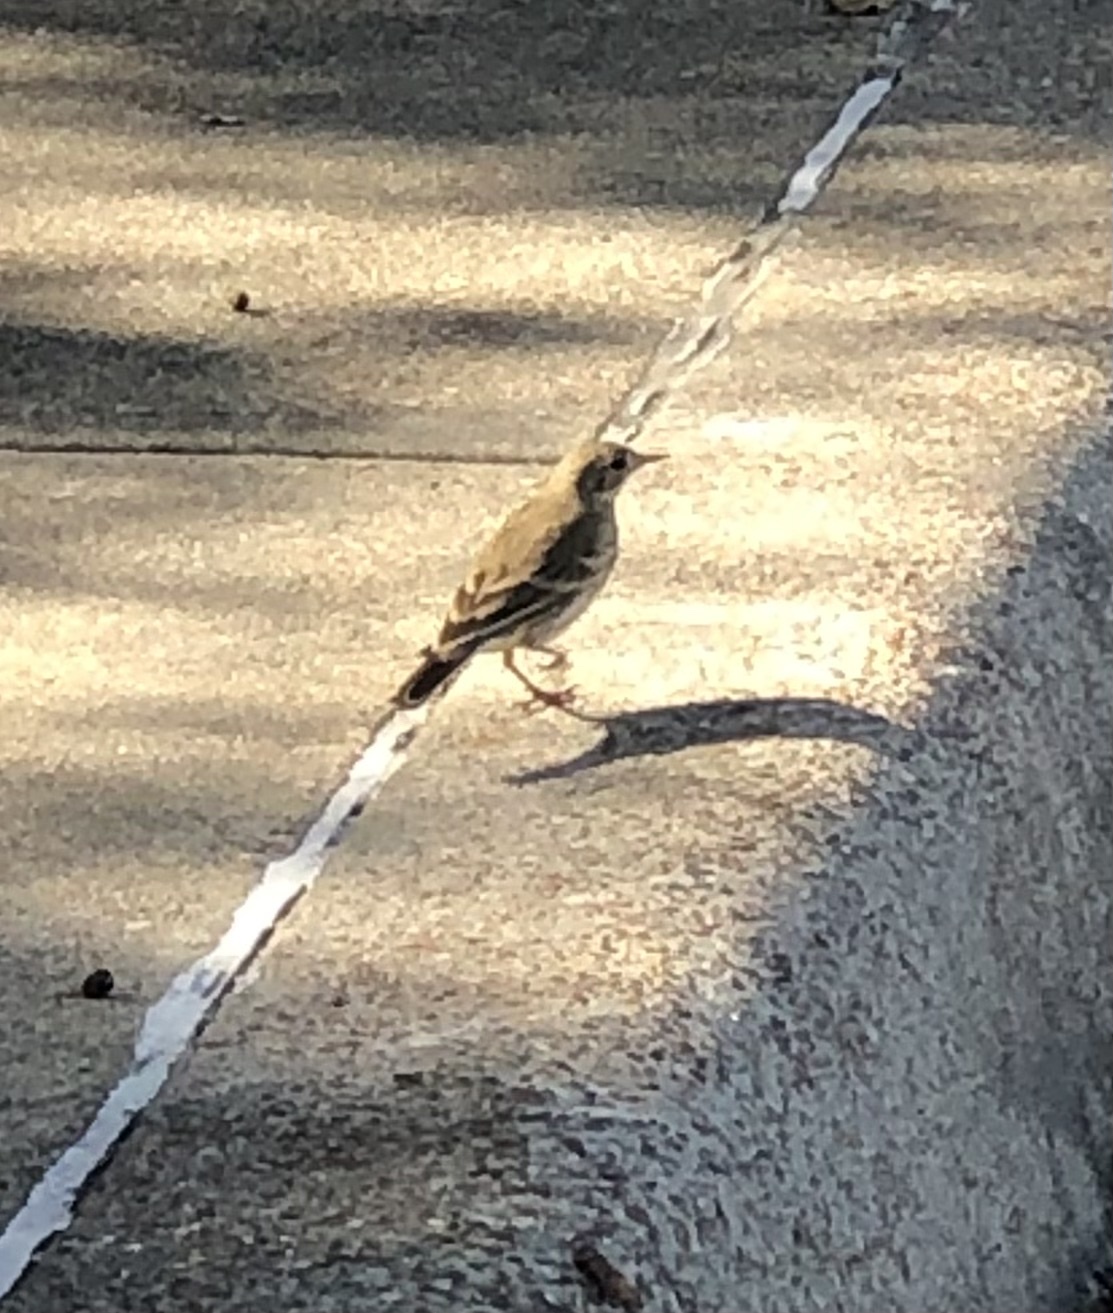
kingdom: Animalia
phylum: Chordata
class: Aves
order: Passeriformes
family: Motacillidae
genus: Anthus
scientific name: Anthus rubescens
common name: Buff-bellied pipit
